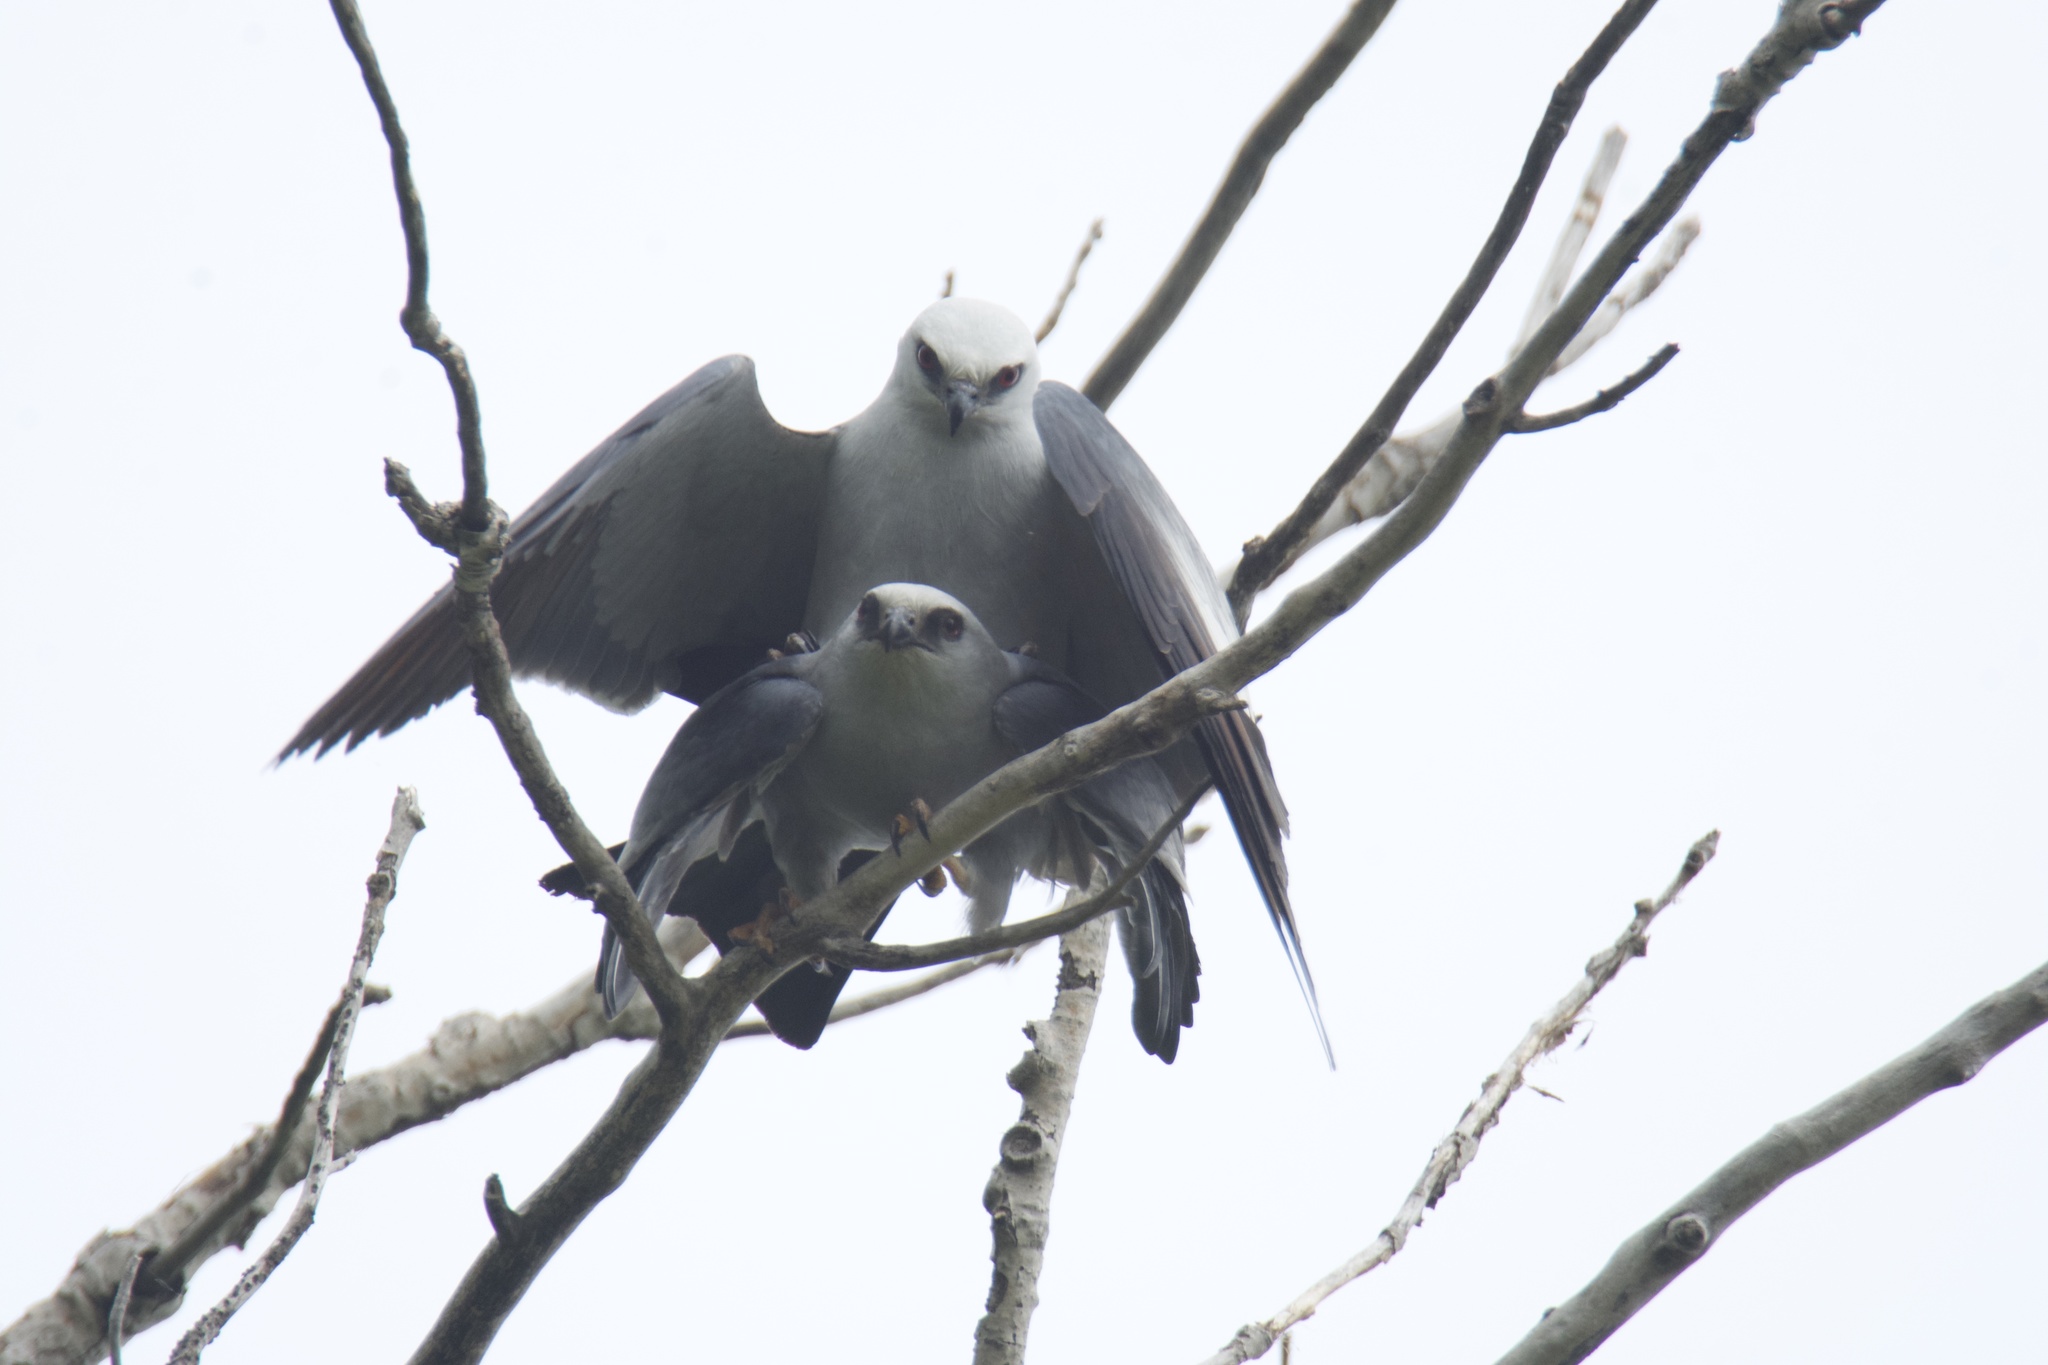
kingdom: Animalia
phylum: Chordata
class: Aves
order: Accipitriformes
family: Accipitridae
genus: Ictinia
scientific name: Ictinia mississippiensis
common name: Mississippi kite
